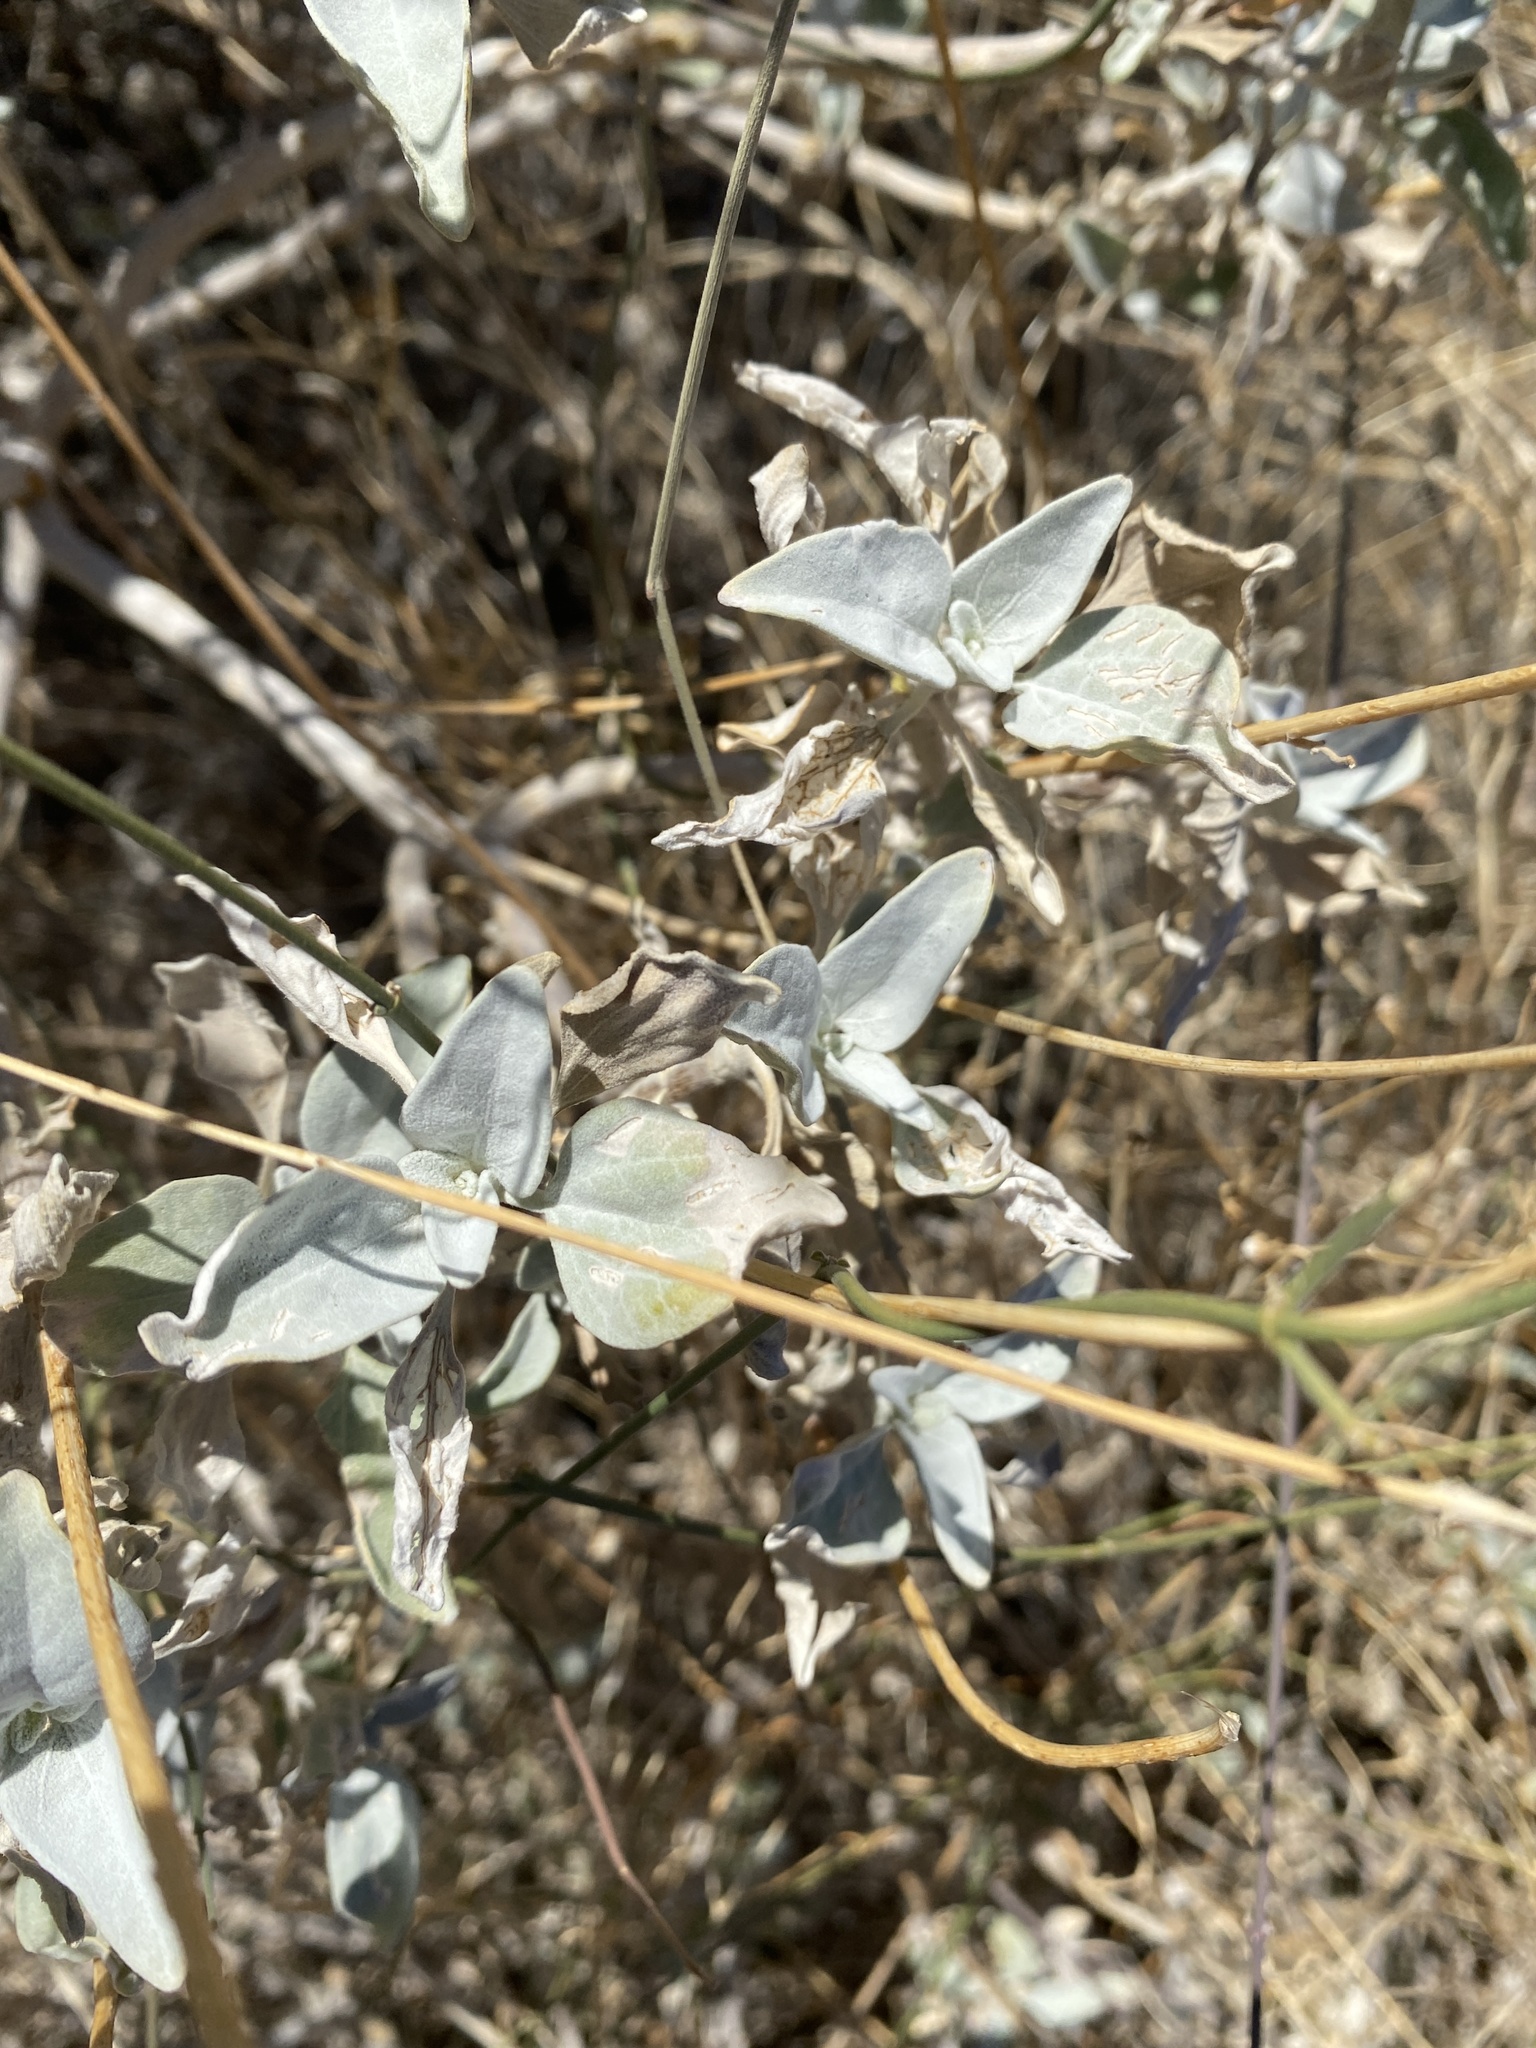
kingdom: Plantae
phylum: Tracheophyta
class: Magnoliopsida
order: Asterales
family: Asteraceae
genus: Encelia
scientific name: Encelia farinosa
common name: Brittlebush
